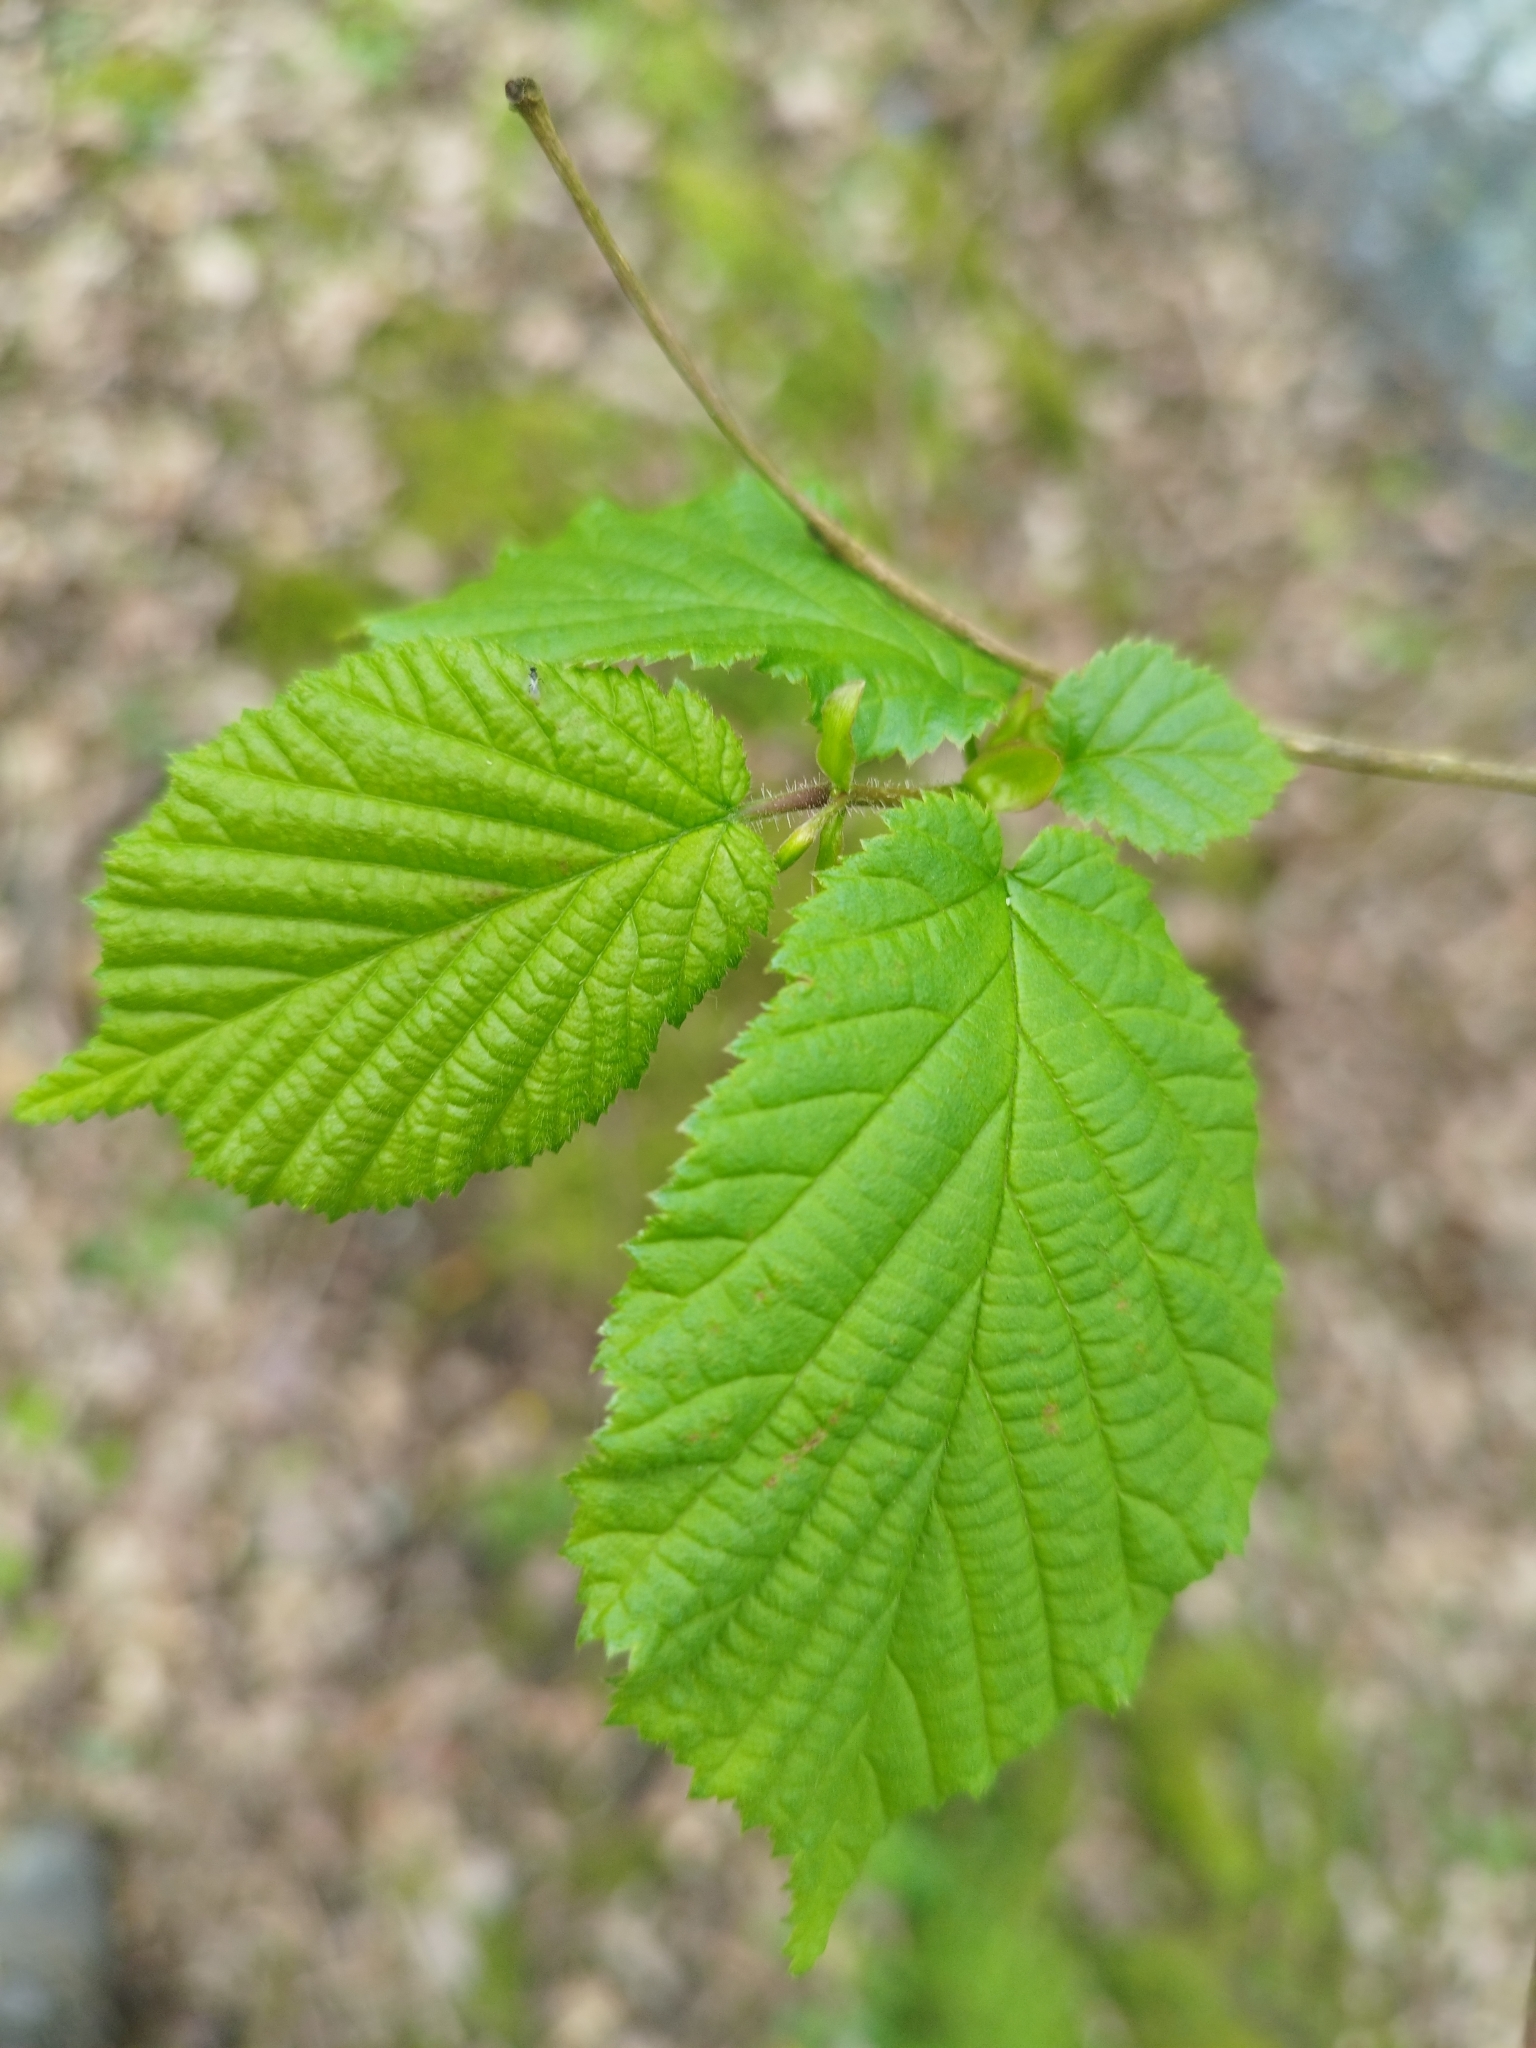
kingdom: Plantae
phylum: Tracheophyta
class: Magnoliopsida
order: Fagales
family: Betulaceae
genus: Corylus
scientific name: Corylus avellana
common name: European hazel
